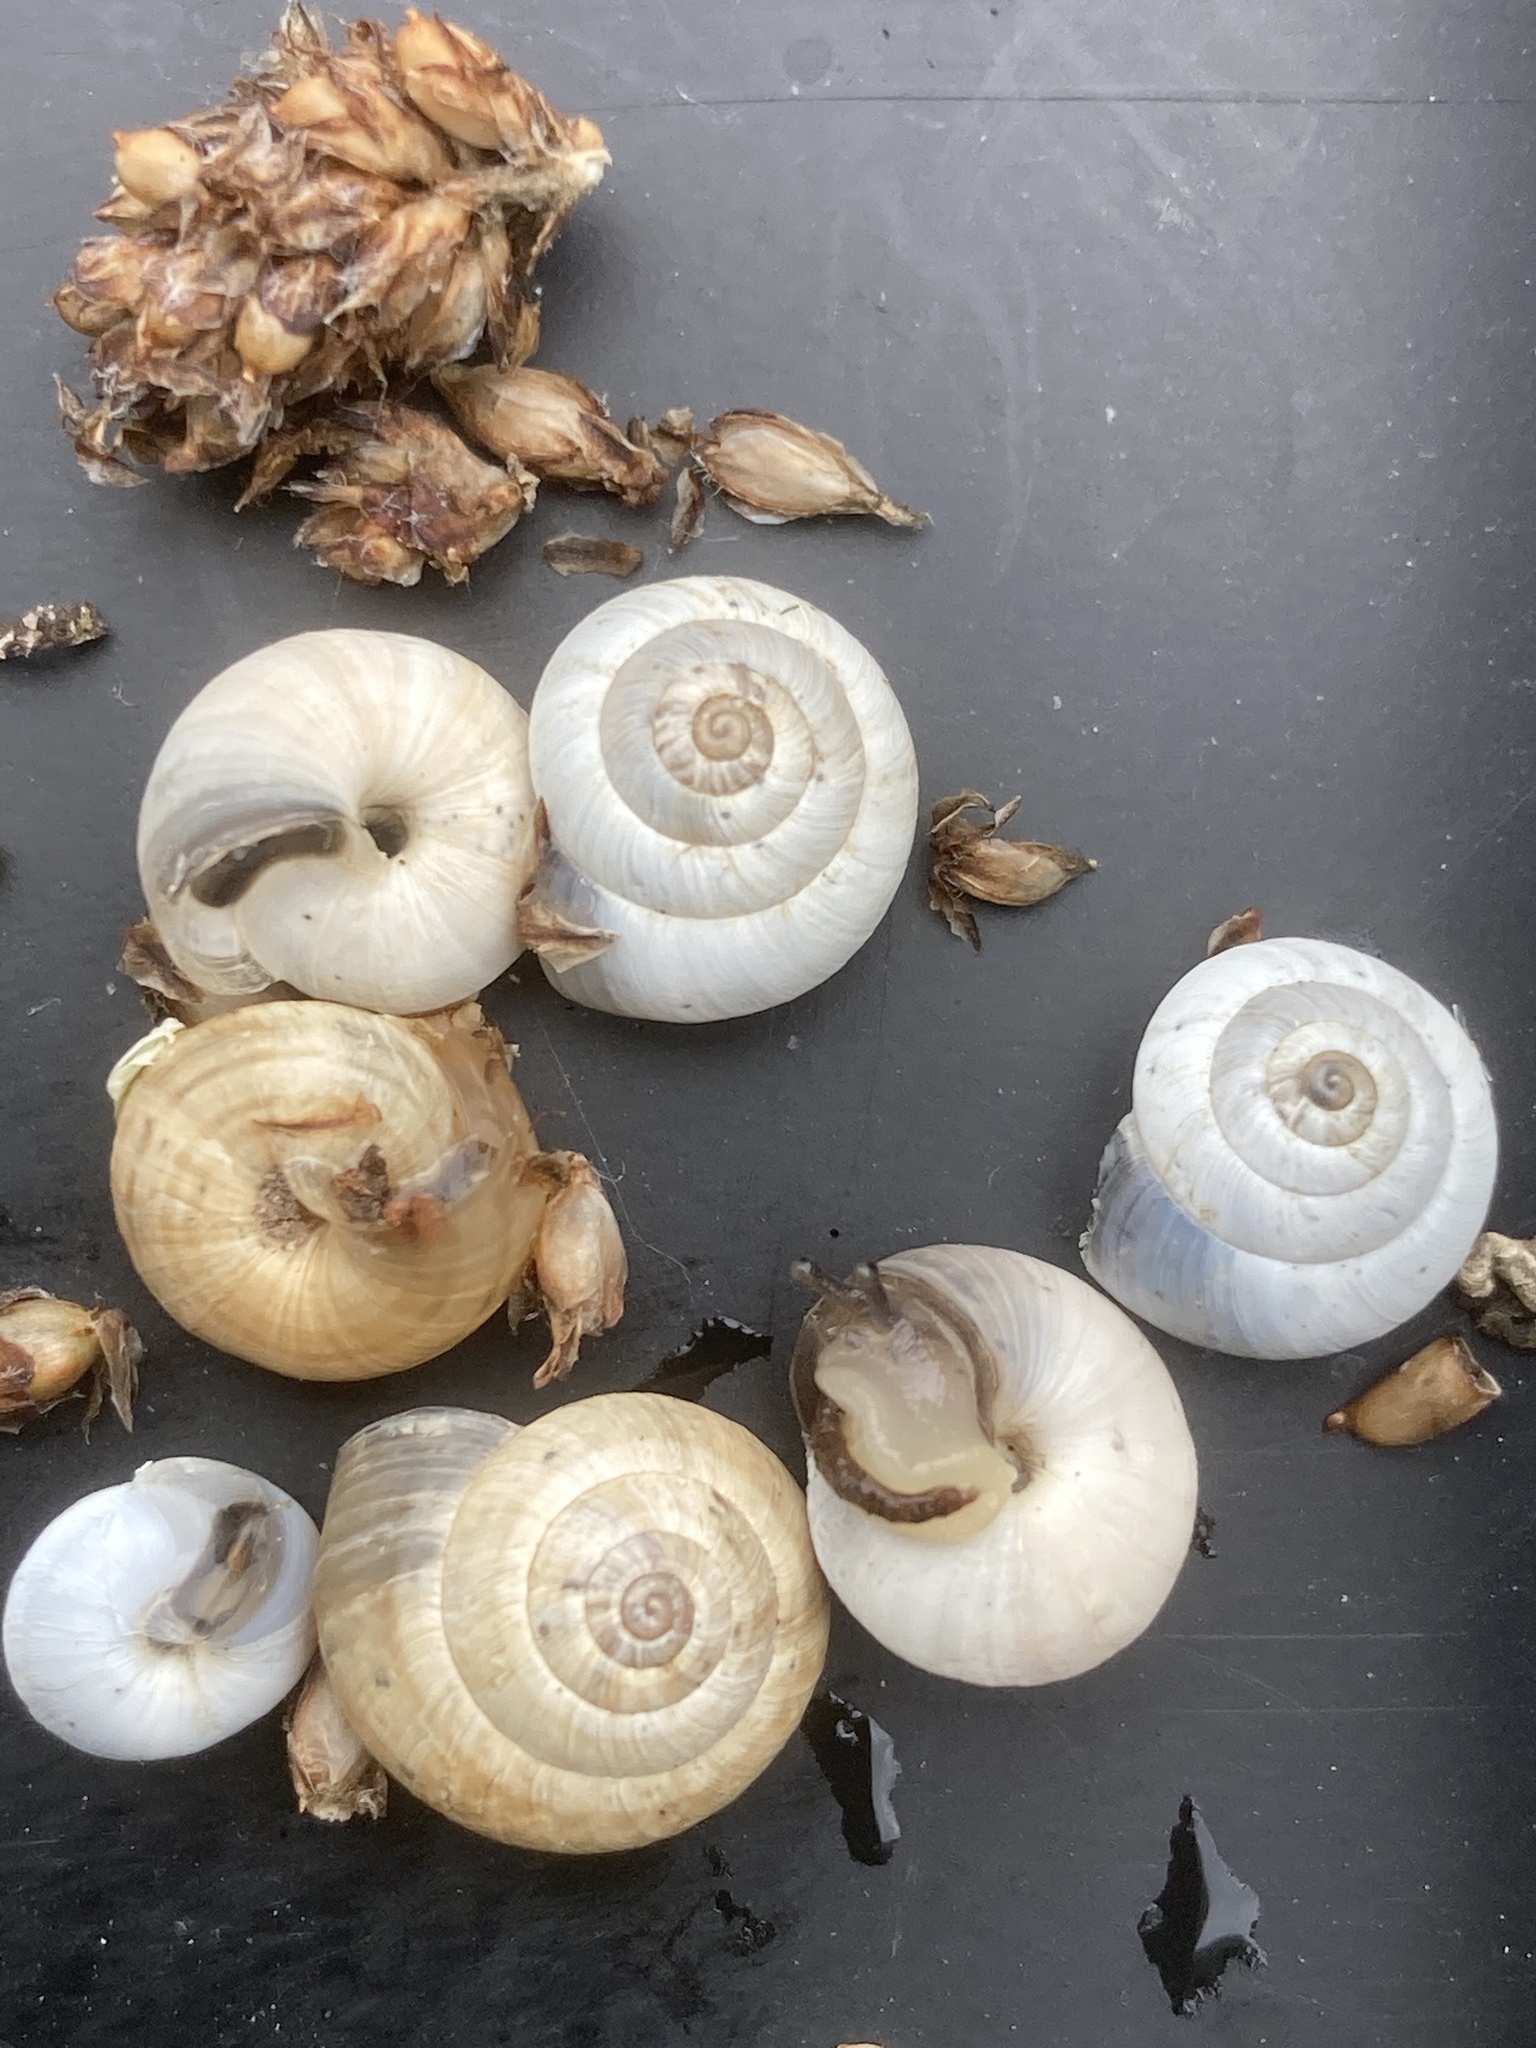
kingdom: Animalia
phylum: Mollusca
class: Gastropoda
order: Stylommatophora
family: Geomitridae
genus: Cernuella
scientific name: Cernuella virgata
